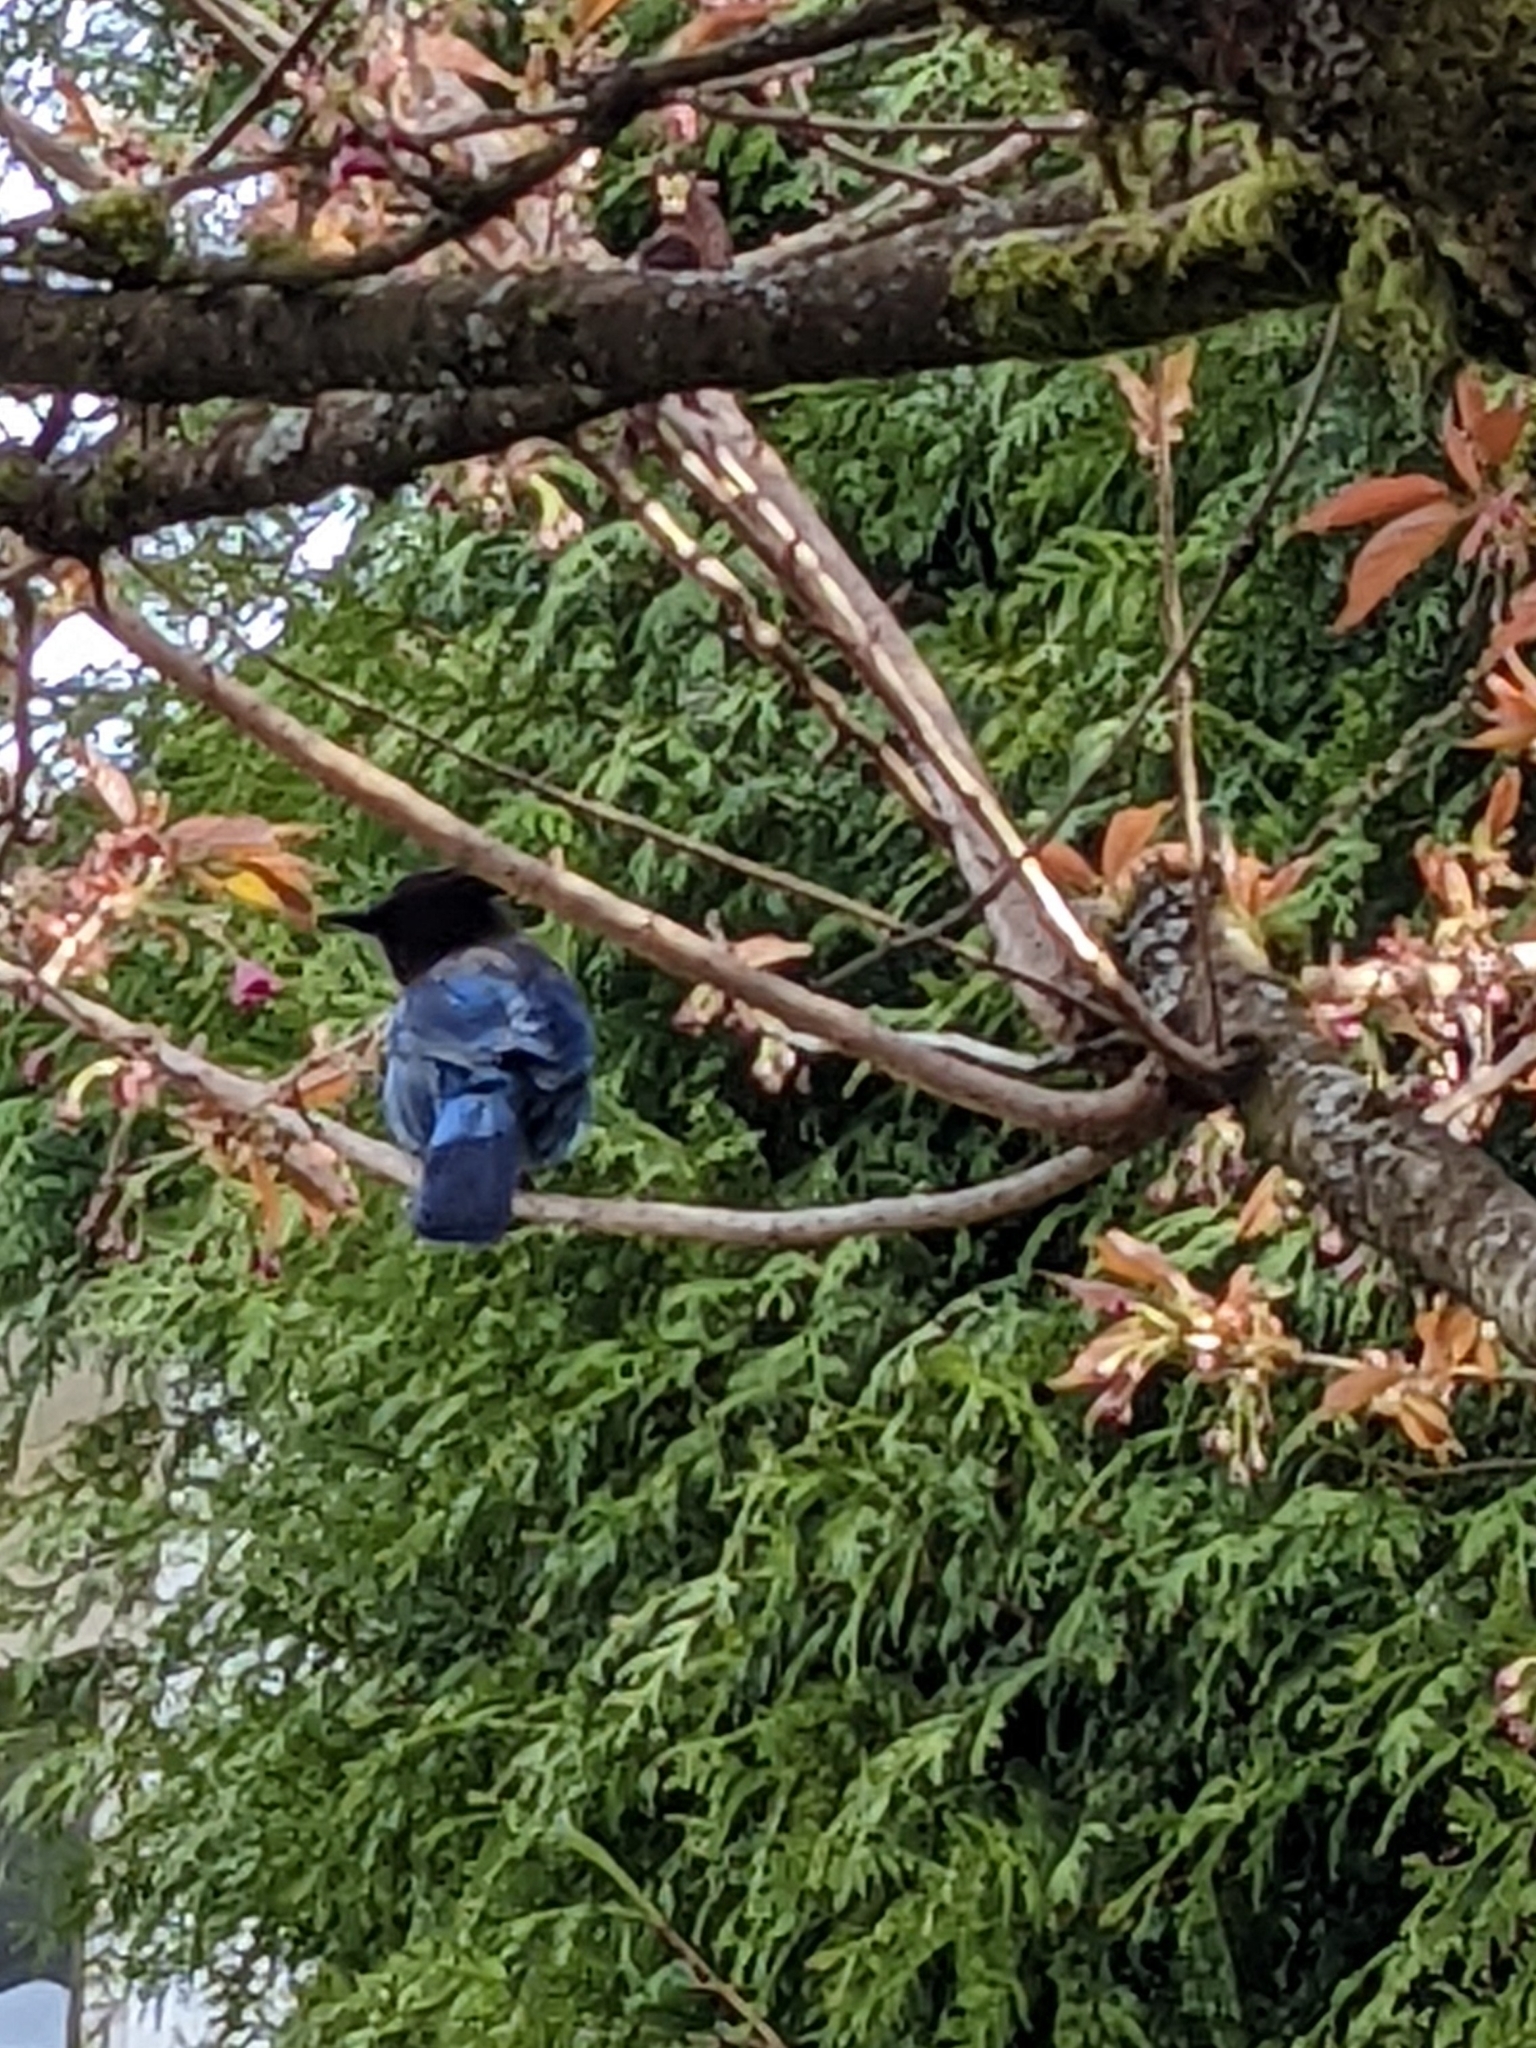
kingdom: Animalia
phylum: Chordata
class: Aves
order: Passeriformes
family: Corvidae
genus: Cyanocitta
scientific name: Cyanocitta stelleri
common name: Steller's jay
